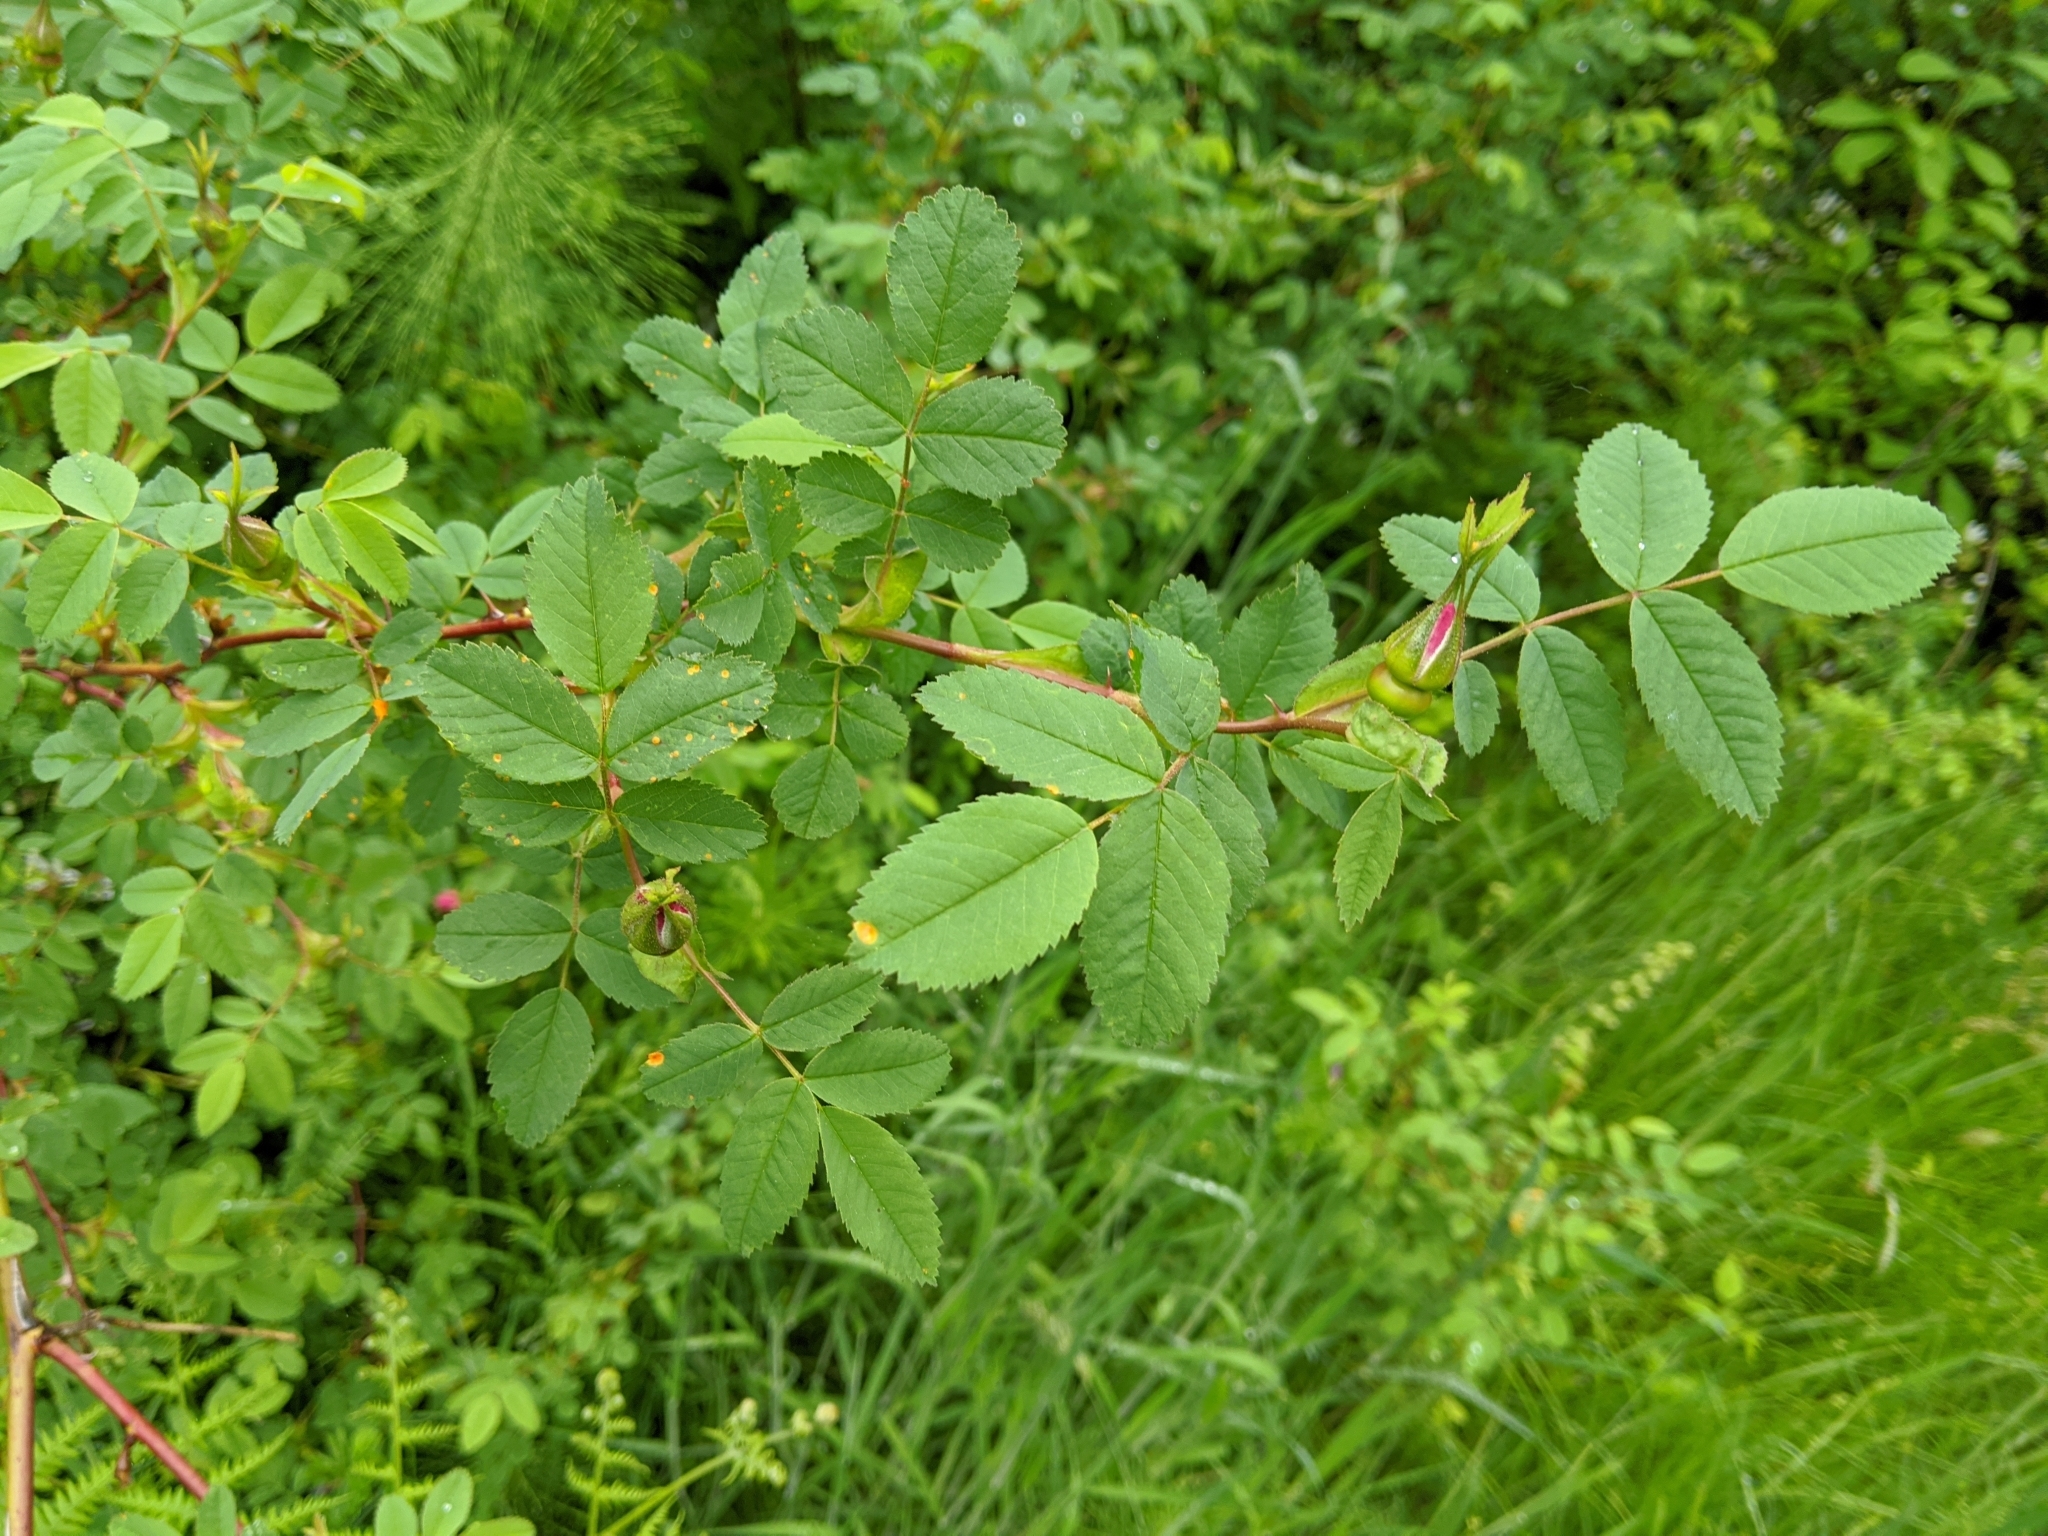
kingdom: Plantae
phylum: Tracheophyta
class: Magnoliopsida
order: Rosales
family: Rosaceae
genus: Rosa
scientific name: Rosa nutkana
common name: Nootka rose
